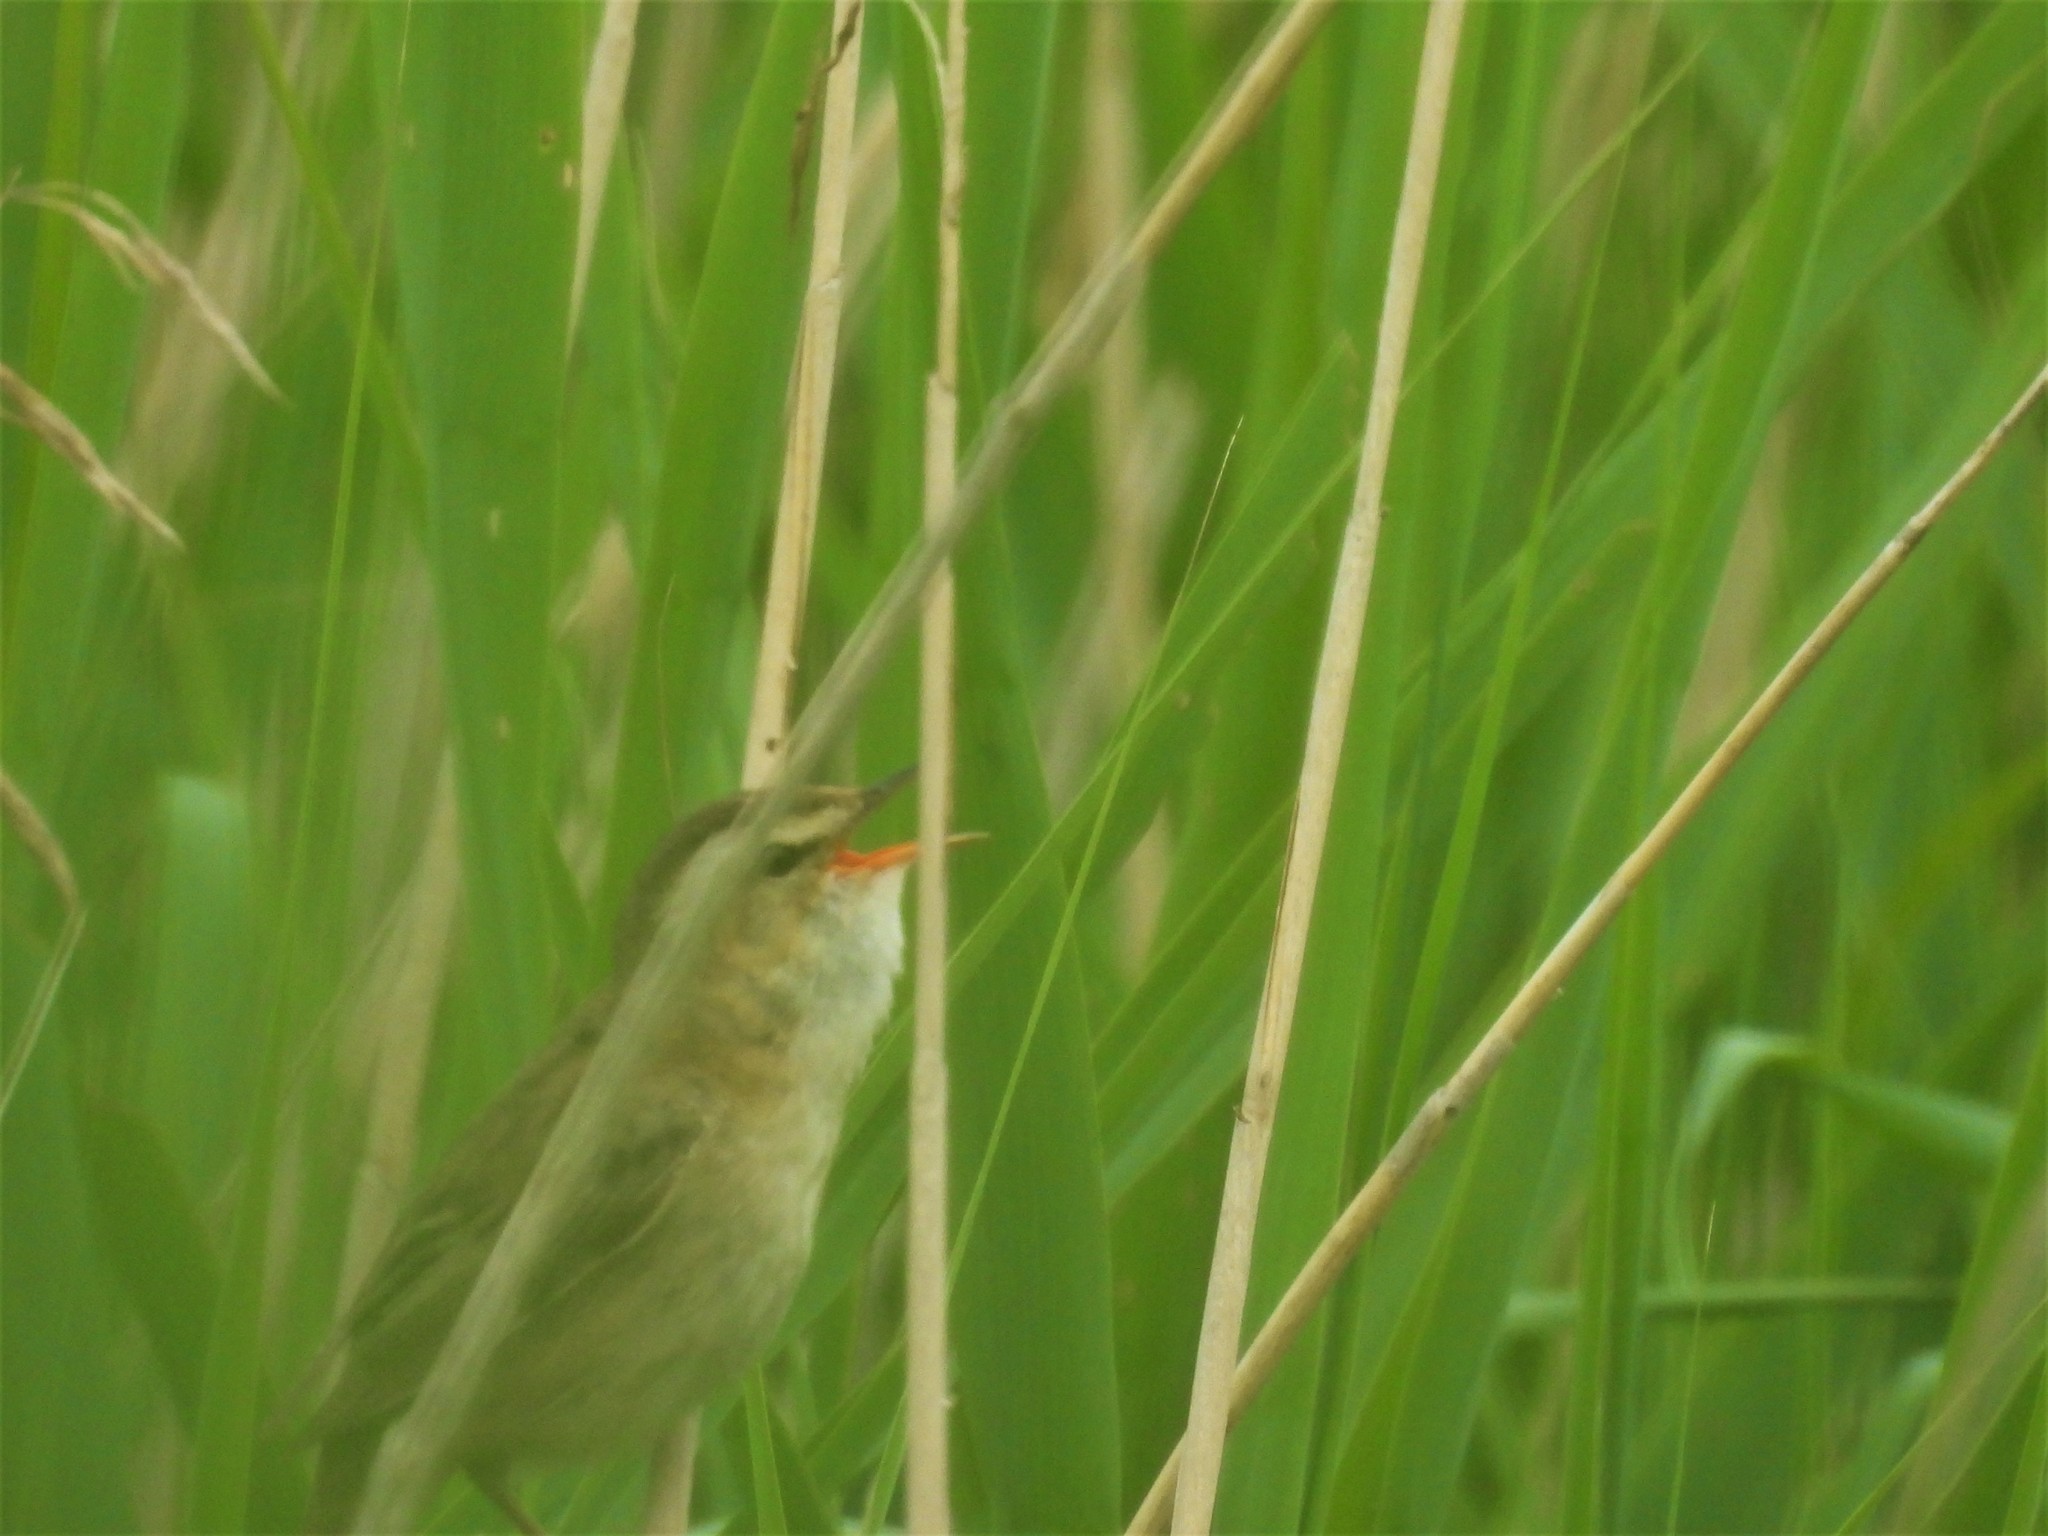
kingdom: Animalia
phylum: Chordata
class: Aves
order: Passeriformes
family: Acrocephalidae
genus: Acrocephalus
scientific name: Acrocephalus schoenobaenus
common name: Sedge warbler
